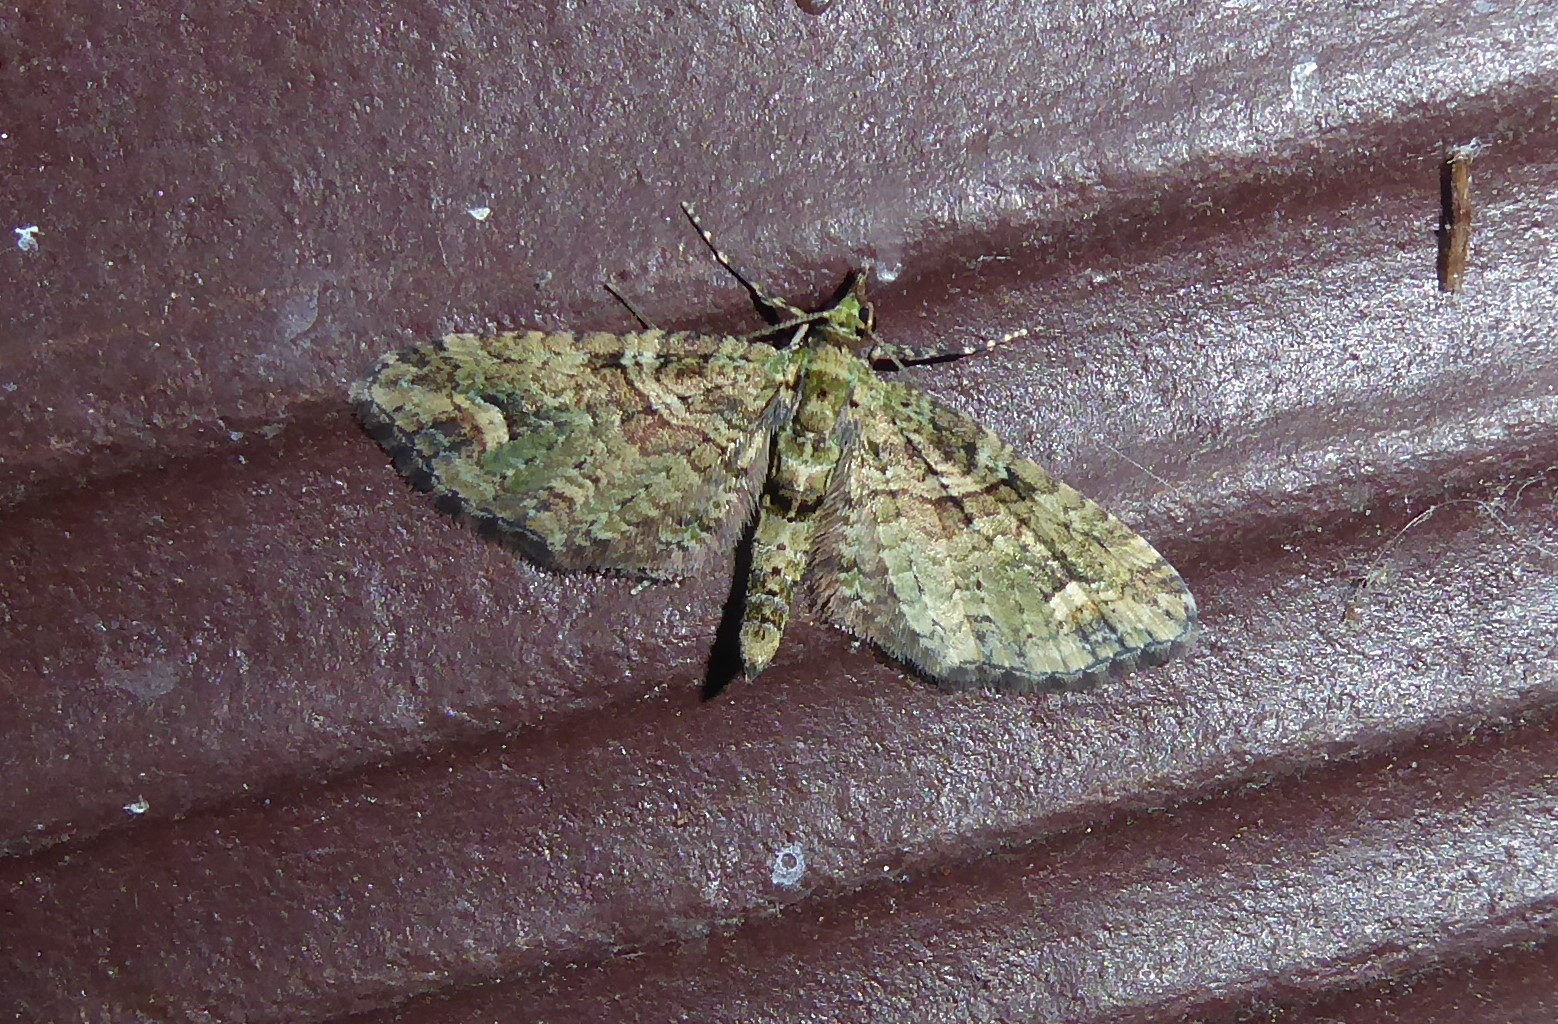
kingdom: Animalia
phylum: Arthropoda
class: Insecta
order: Lepidoptera
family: Geometridae
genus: Idaea
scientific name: Idaea mutanda
